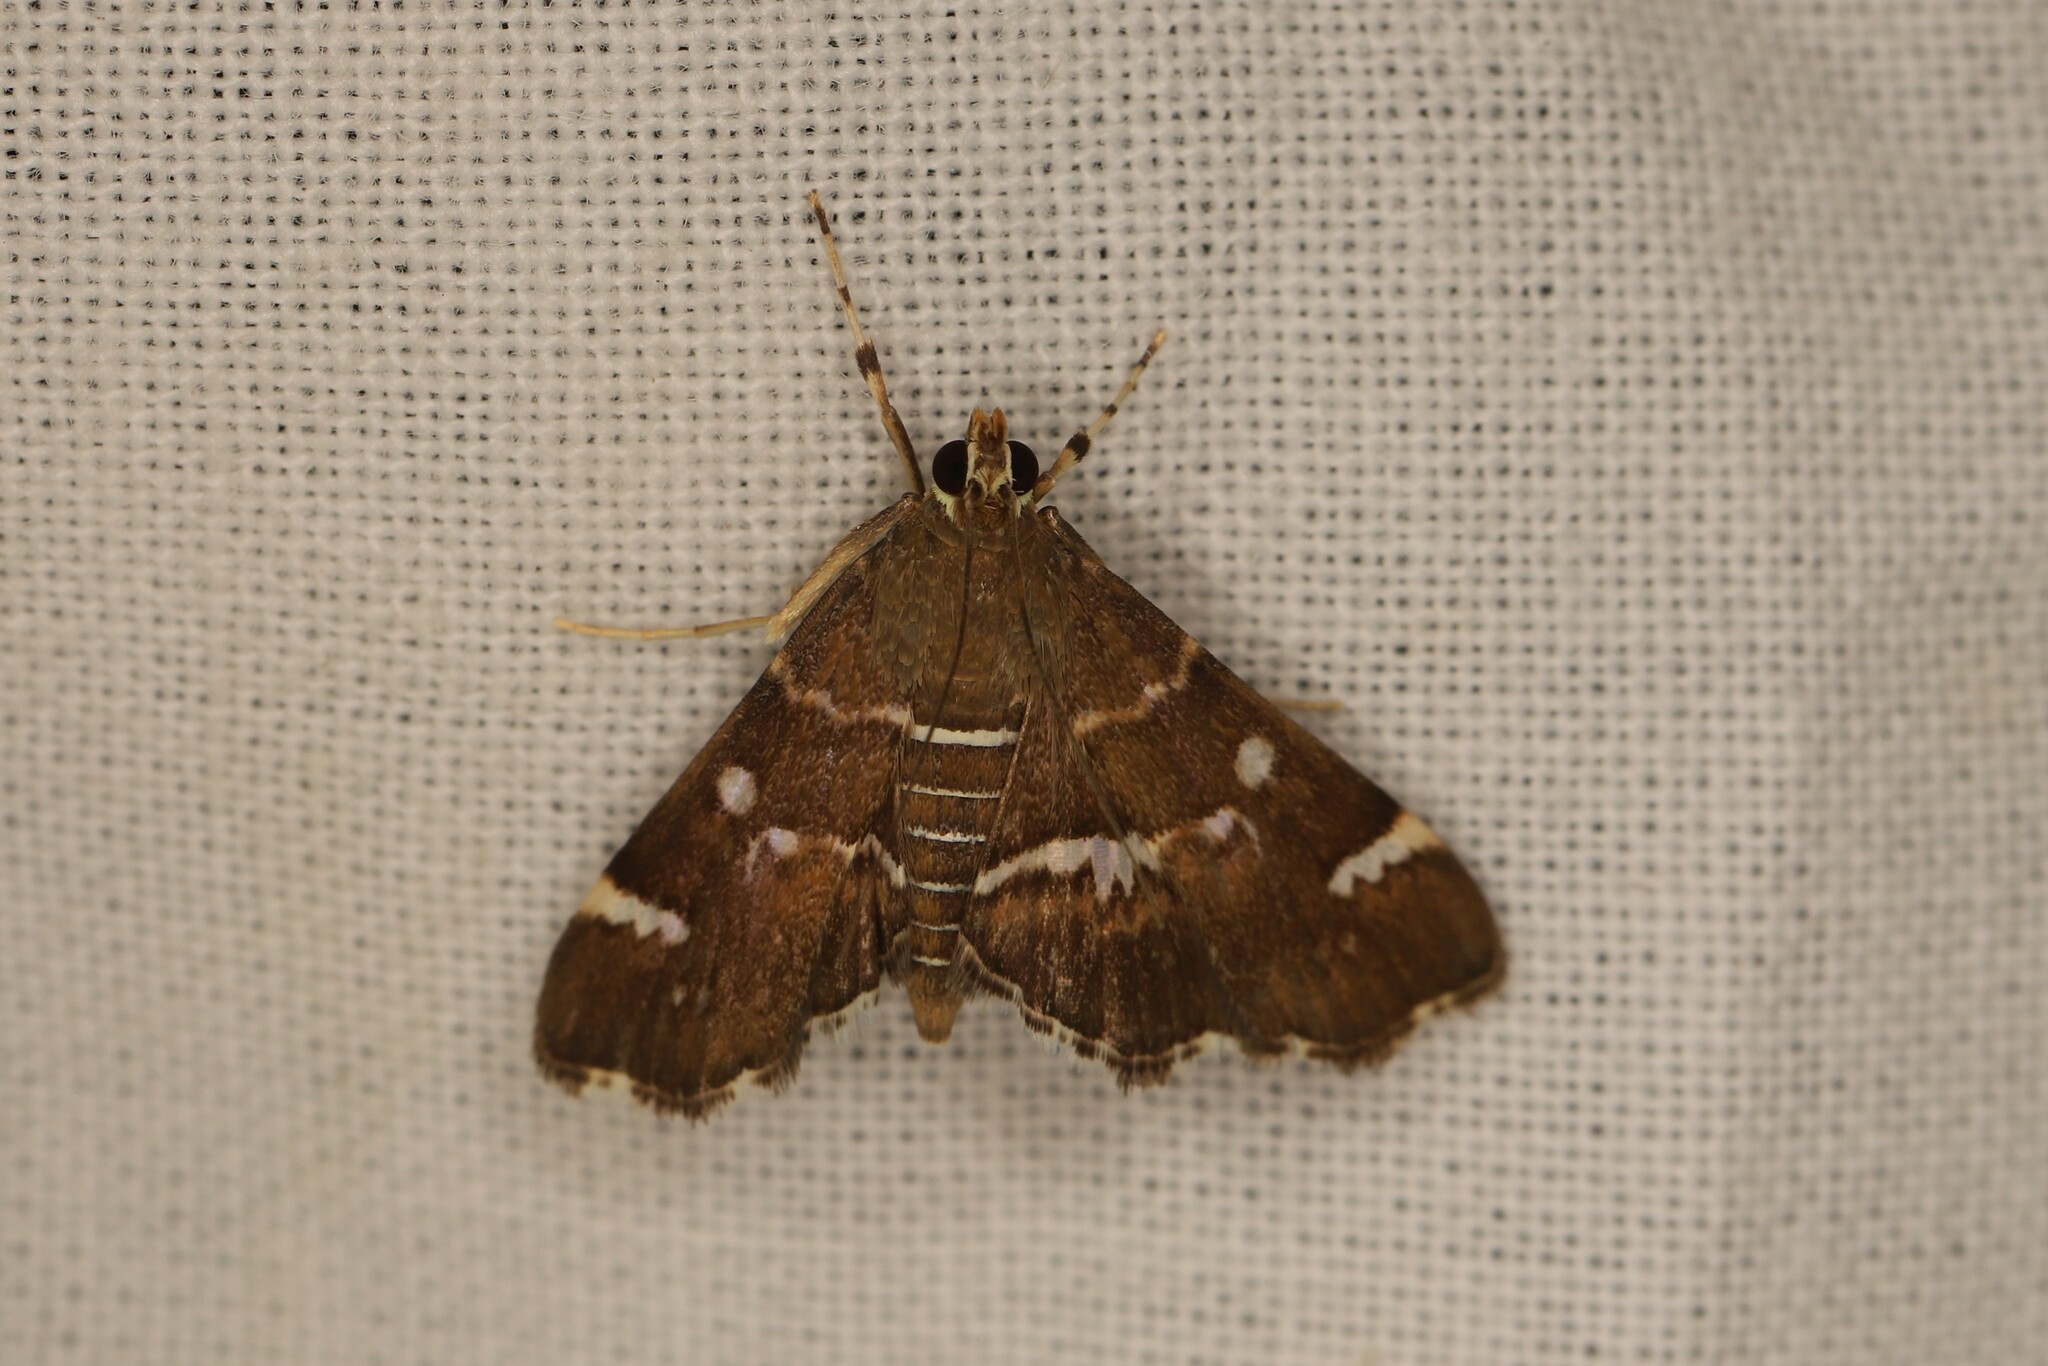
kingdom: Animalia
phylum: Arthropoda
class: Insecta
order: Lepidoptera
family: Crambidae
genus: Hymenia
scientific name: Hymenia perspectalis
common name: Spotted beet webworm
